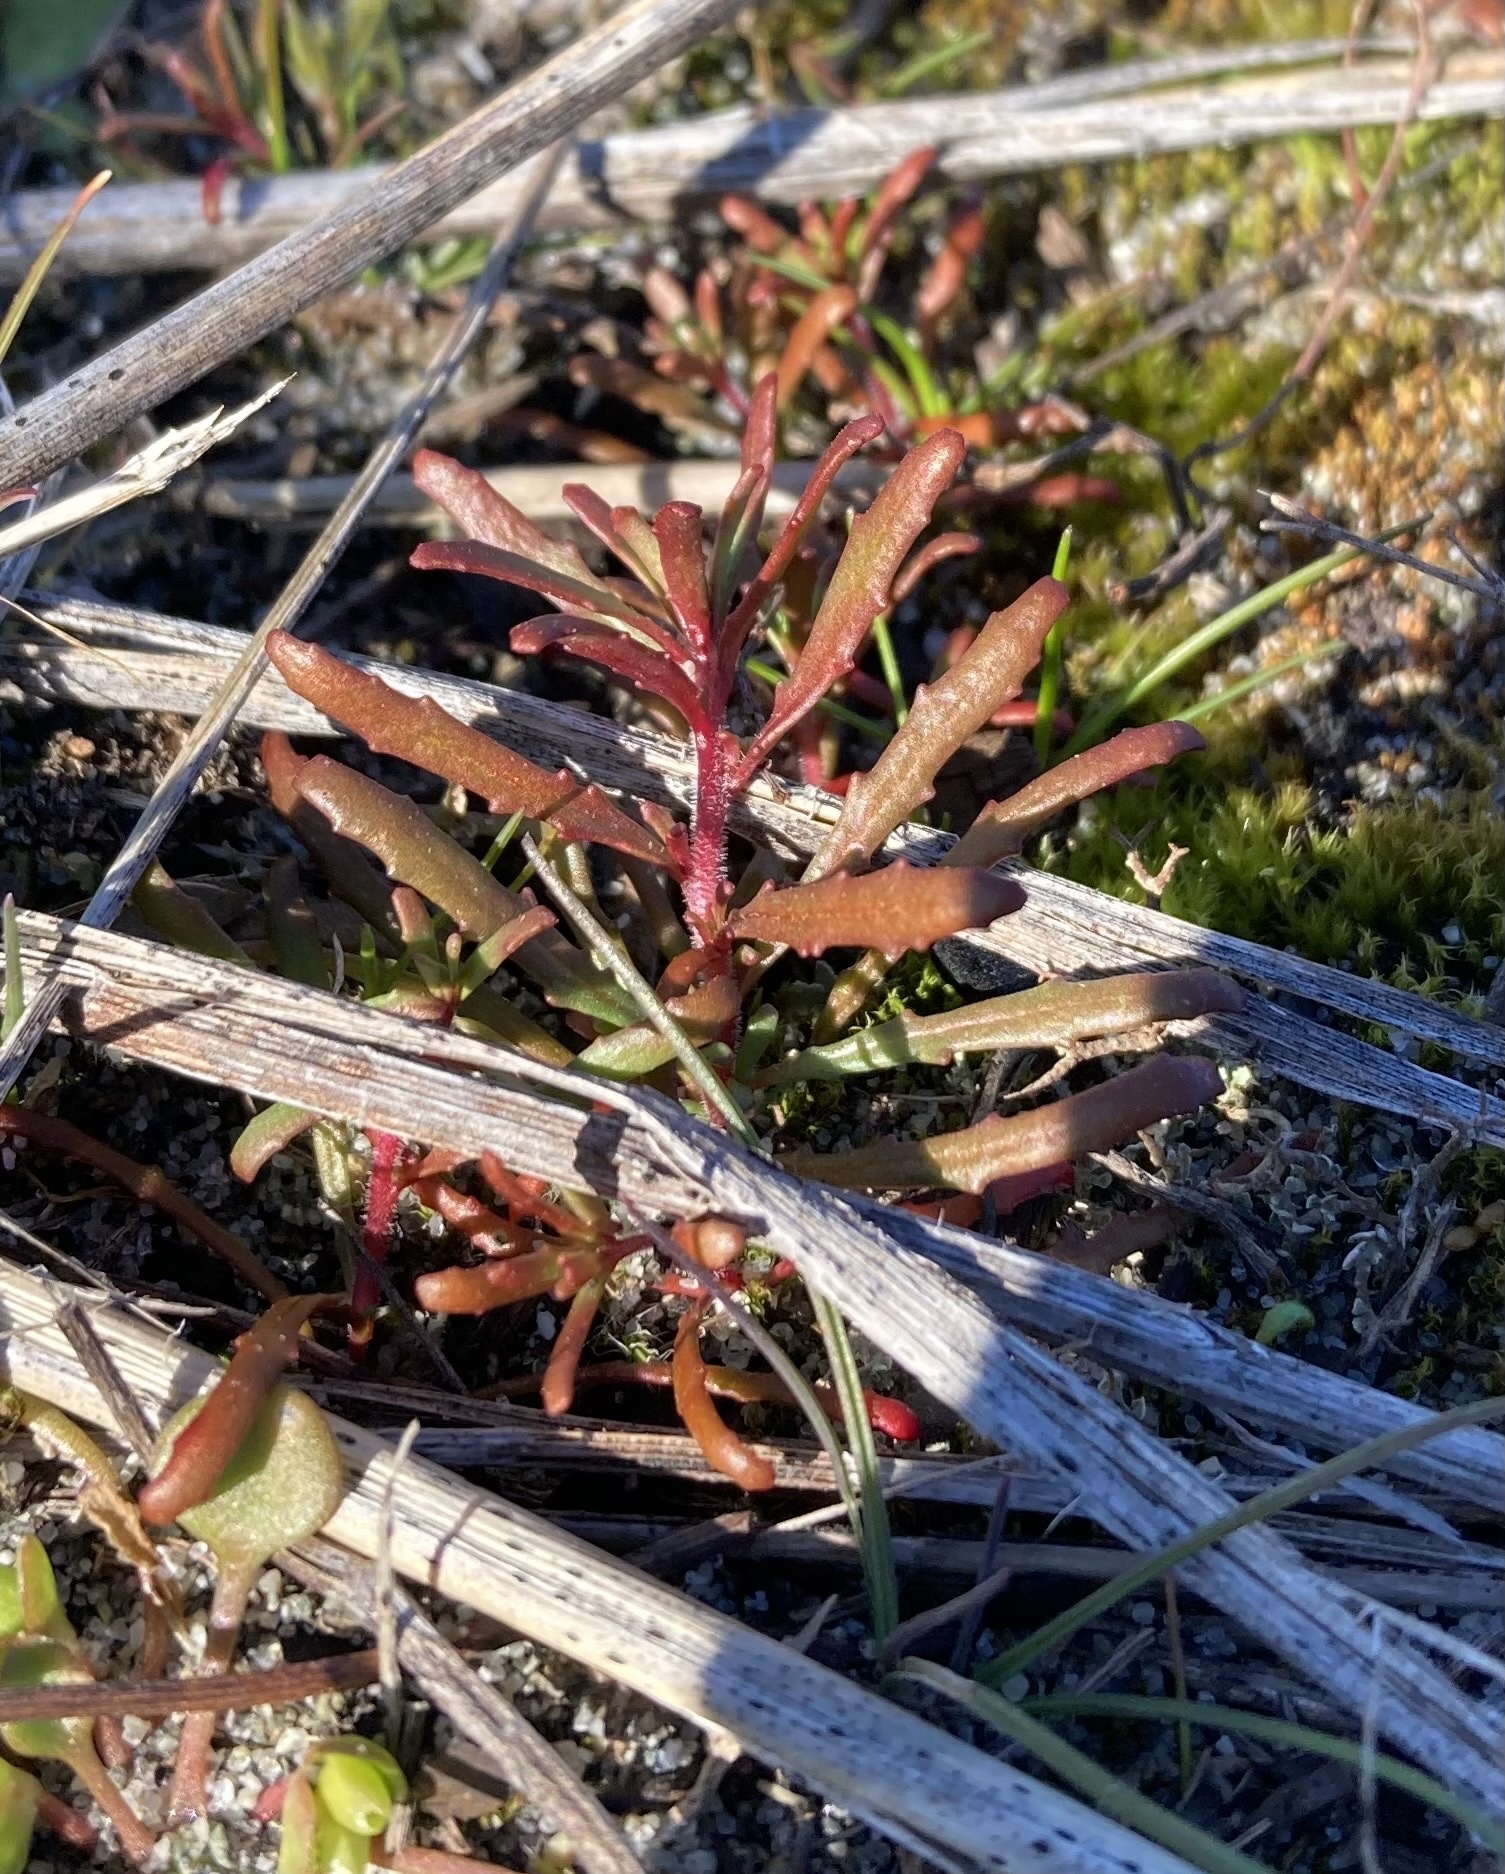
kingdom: Plantae
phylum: Tracheophyta
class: Magnoliopsida
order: Myrtales
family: Onagraceae
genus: Camissonia
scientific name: Camissonia contorta
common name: Contorted suncup
